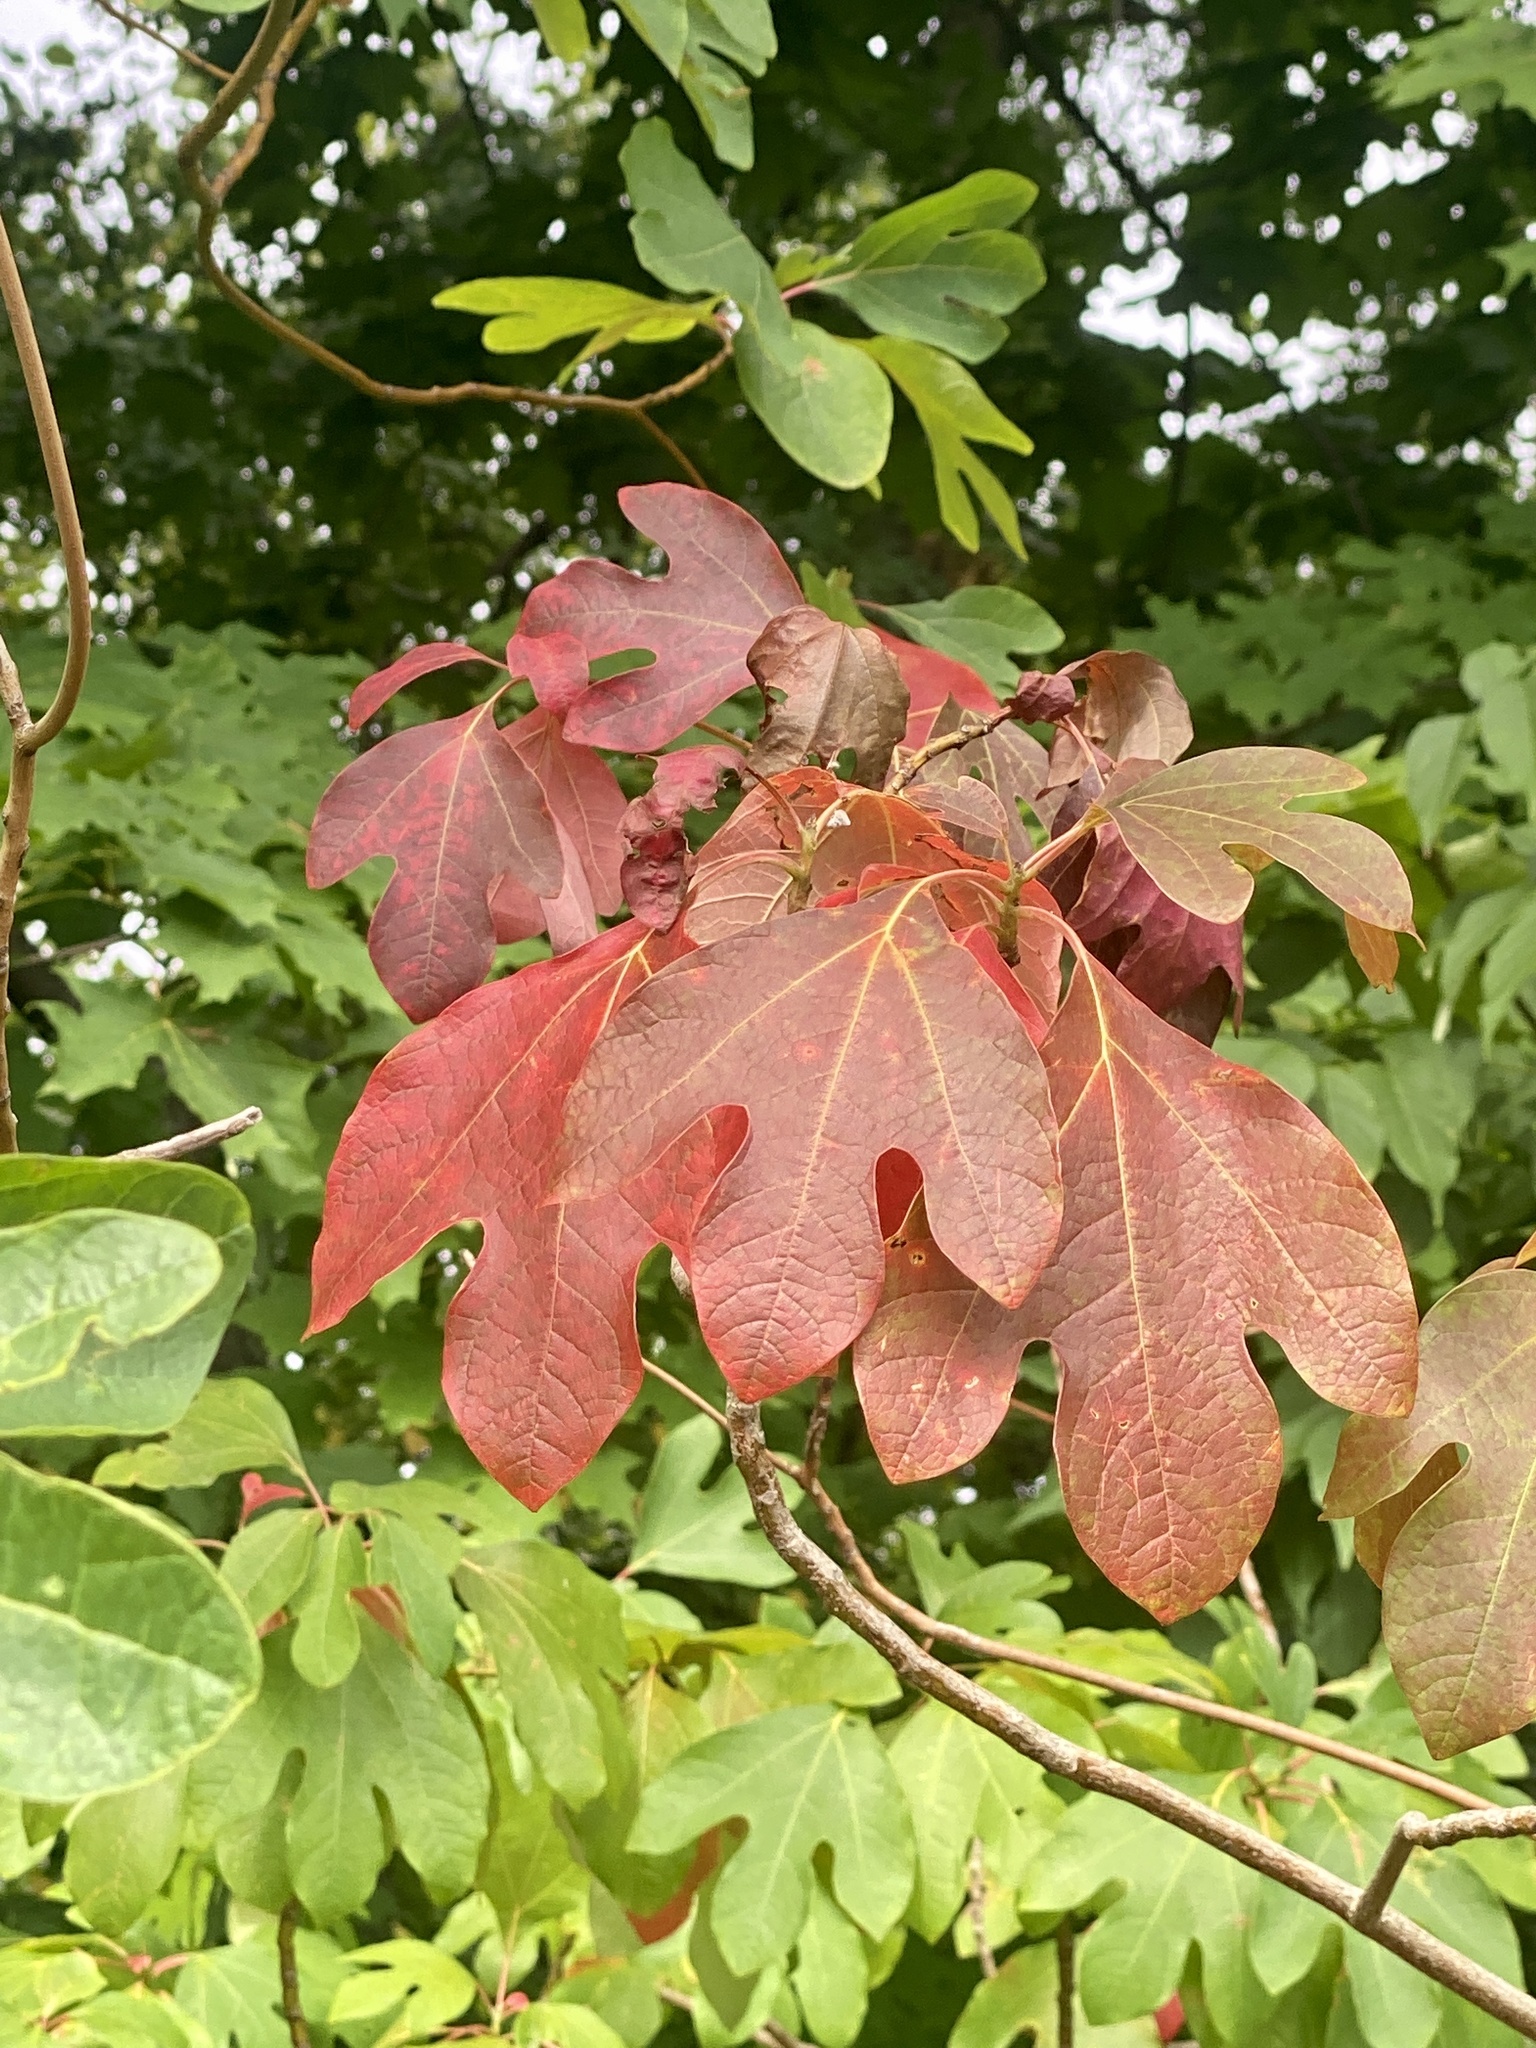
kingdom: Plantae
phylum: Tracheophyta
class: Magnoliopsida
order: Laurales
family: Lauraceae
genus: Sassafras
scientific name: Sassafras albidum
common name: Sassafras
